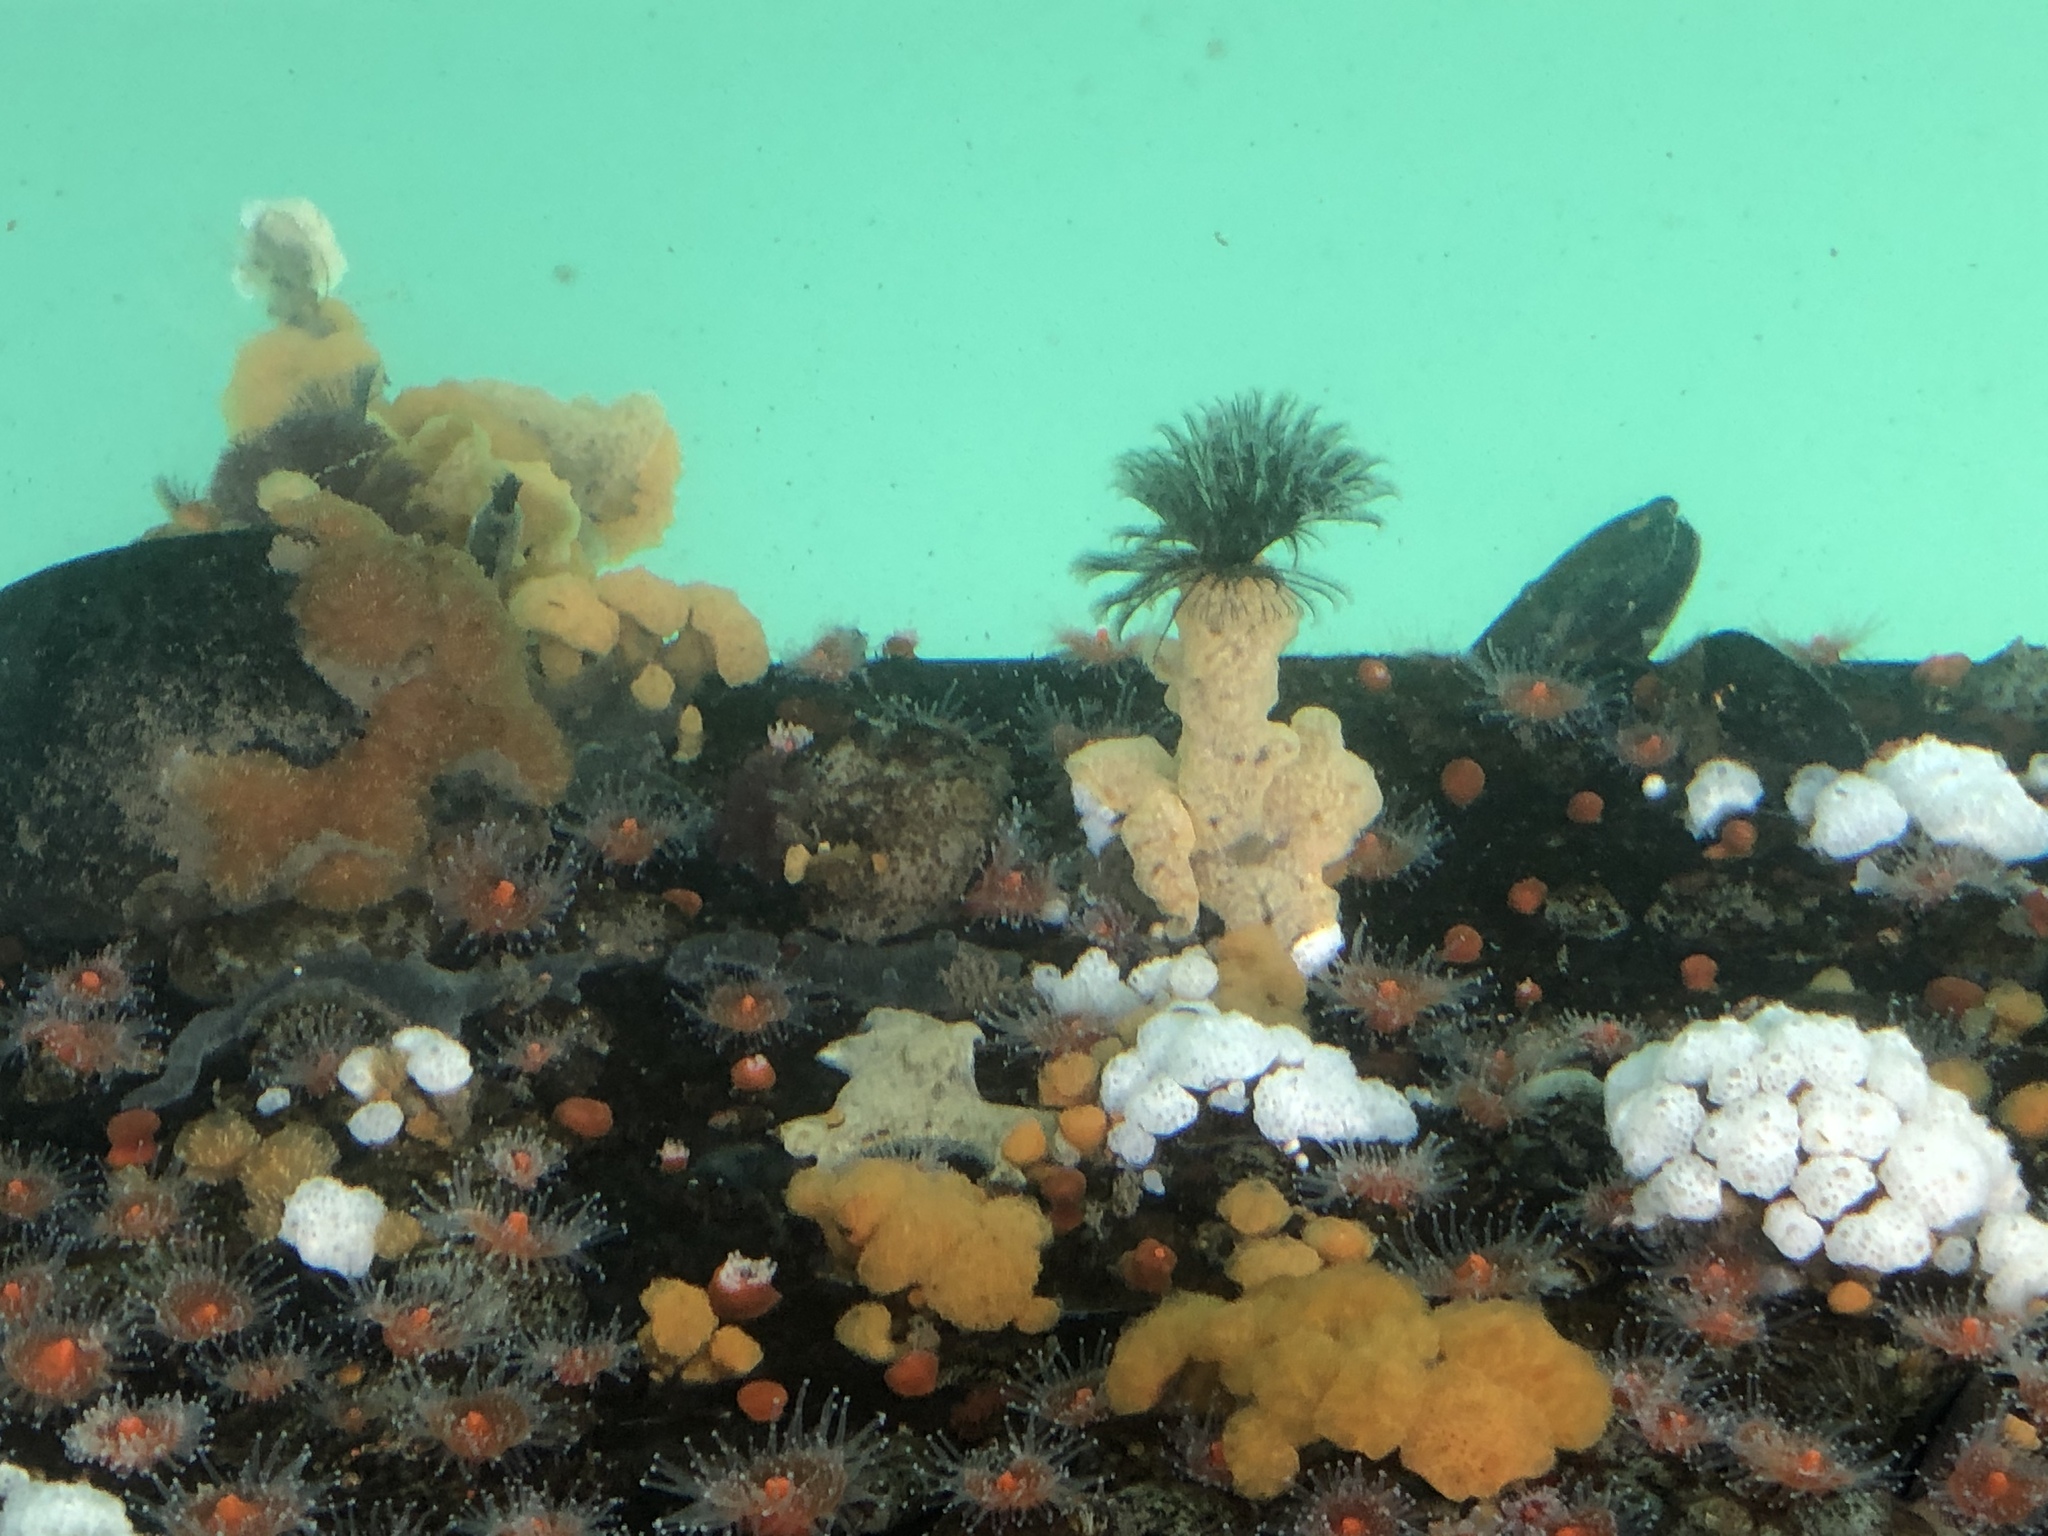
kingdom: Animalia
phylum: Annelida
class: Polychaeta
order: Sabellida
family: Sabellidae
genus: Eudistylia
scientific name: Eudistylia polymorpha
